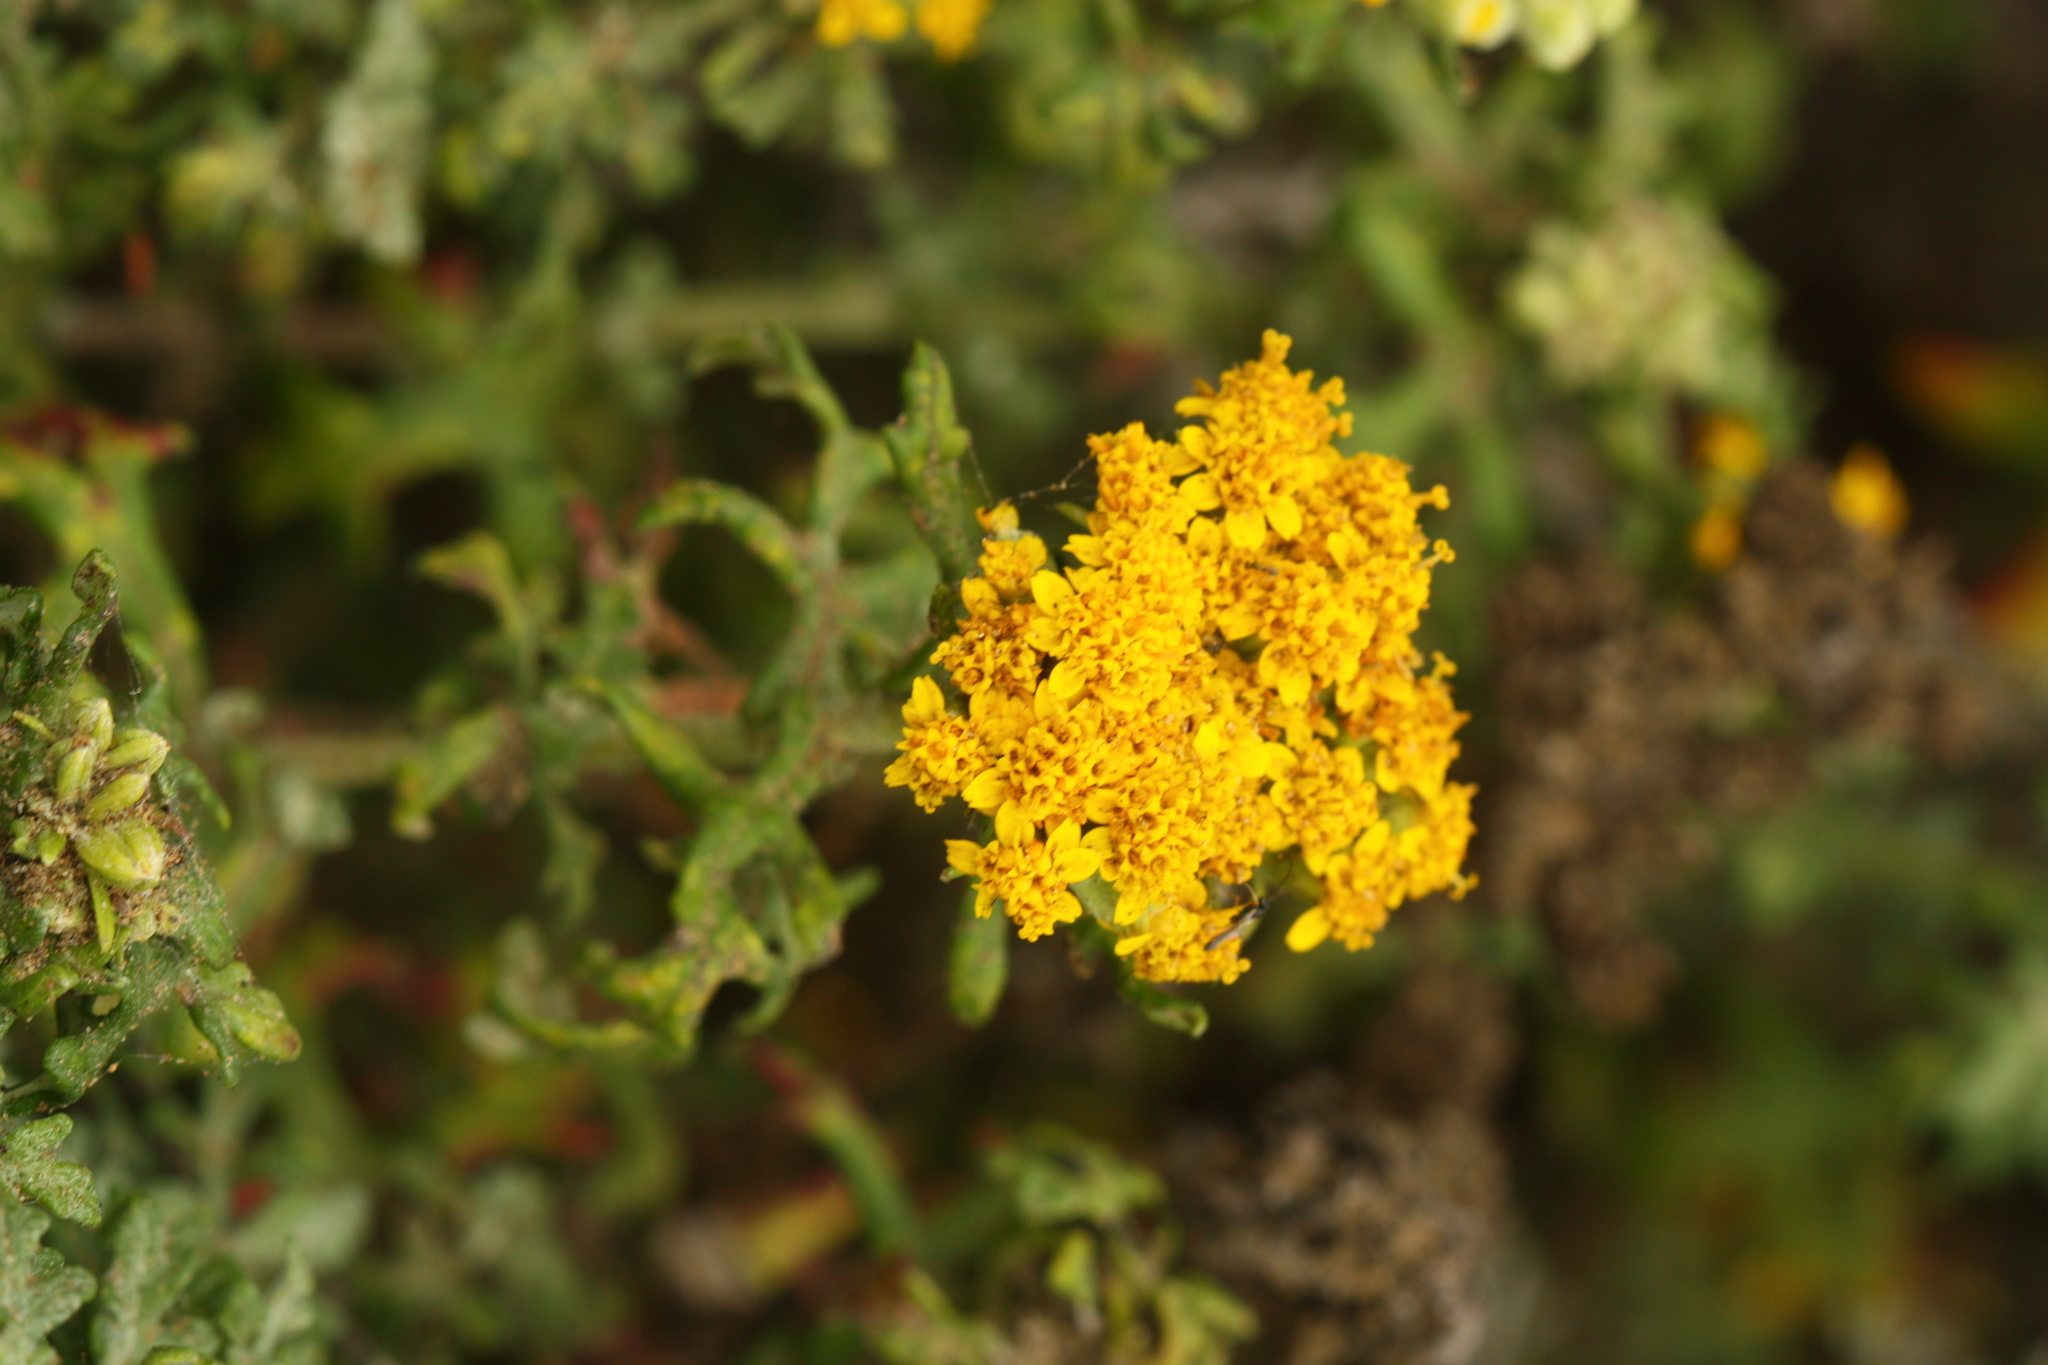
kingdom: Plantae
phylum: Tracheophyta
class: Magnoliopsida
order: Asterales
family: Asteraceae
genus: Eriophyllum
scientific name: Eriophyllum staechadifolium
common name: Lizardtail
